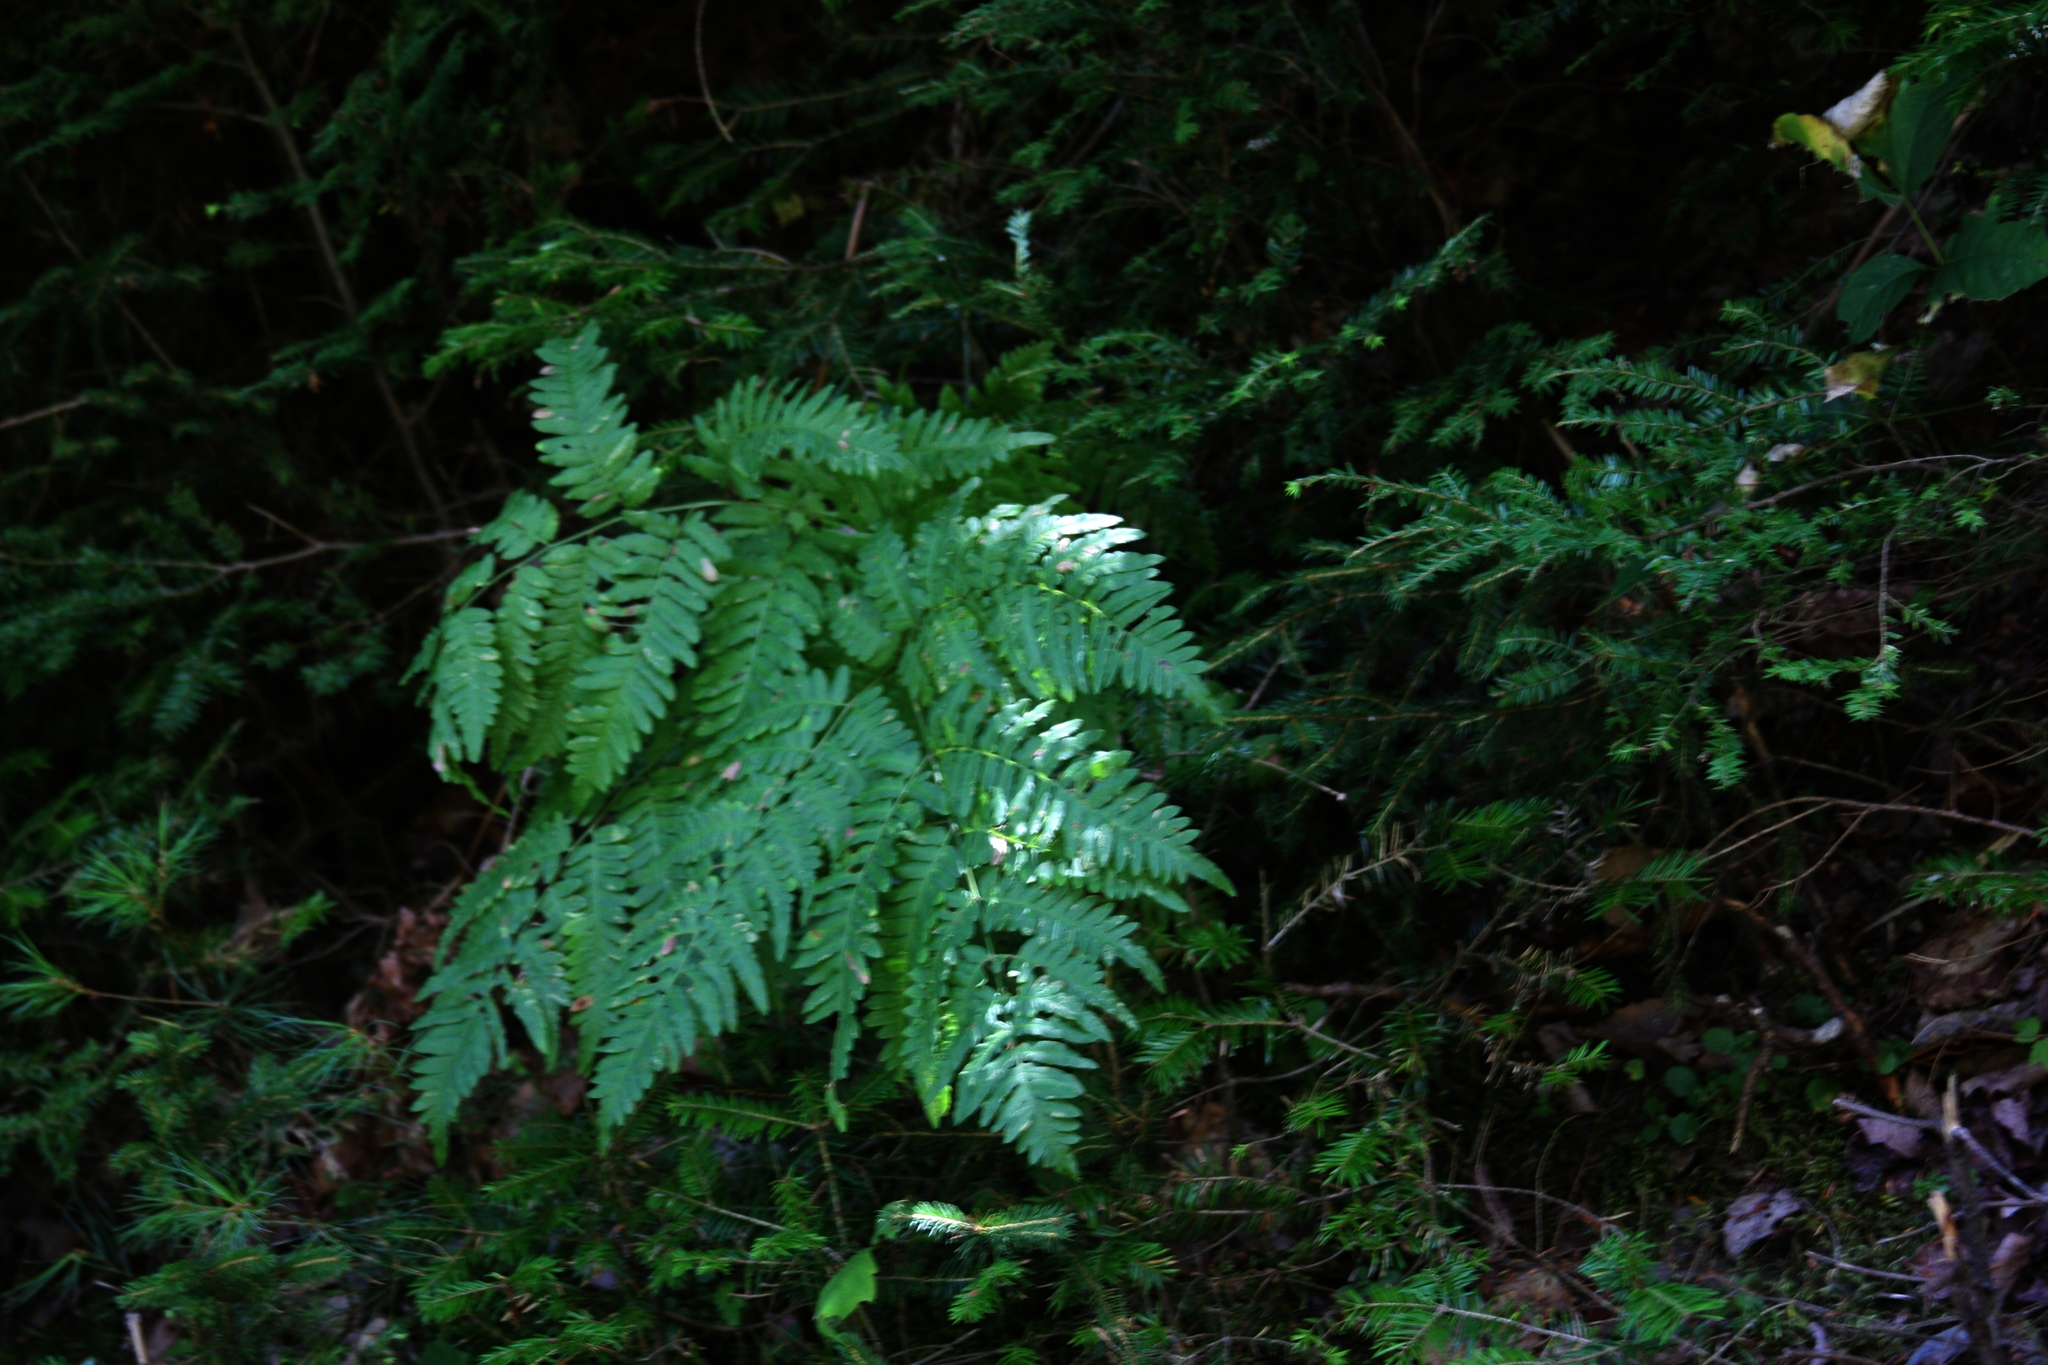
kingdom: Plantae
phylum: Tracheophyta
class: Polypodiopsida
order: Polypodiales
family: Dennstaedtiaceae
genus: Pteridium
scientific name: Pteridium aquilinum
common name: Bracken
